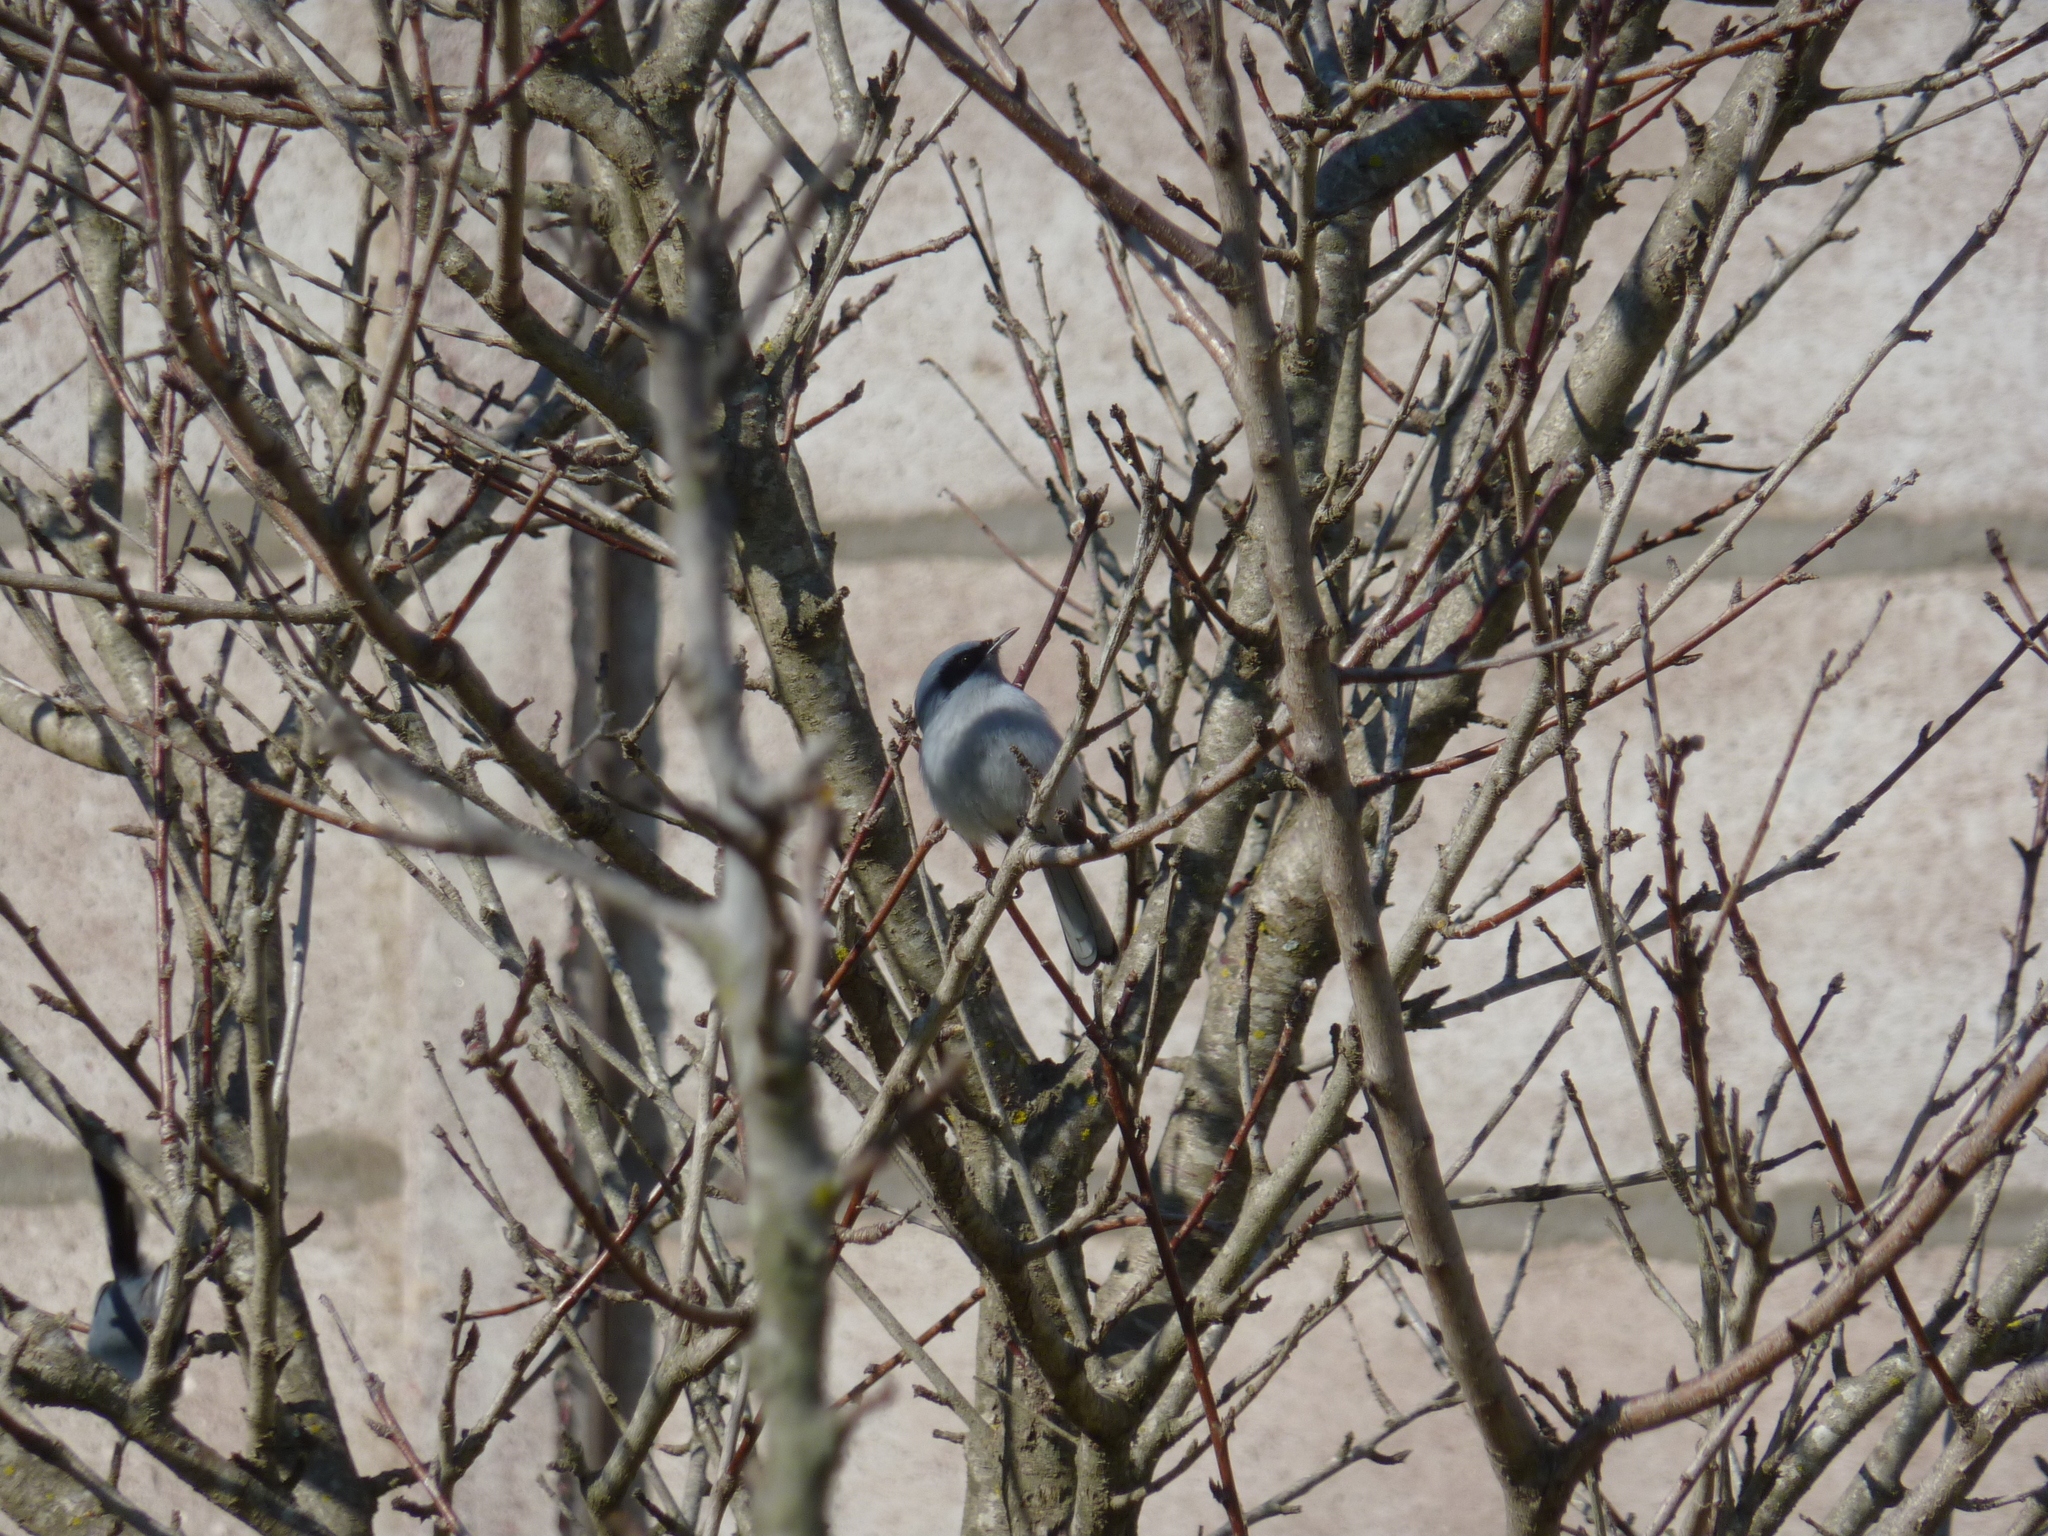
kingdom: Animalia
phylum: Chordata
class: Aves
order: Passeriformes
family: Polioptilidae
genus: Polioptila
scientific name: Polioptila dumicola
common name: Masked gnatcatcher
